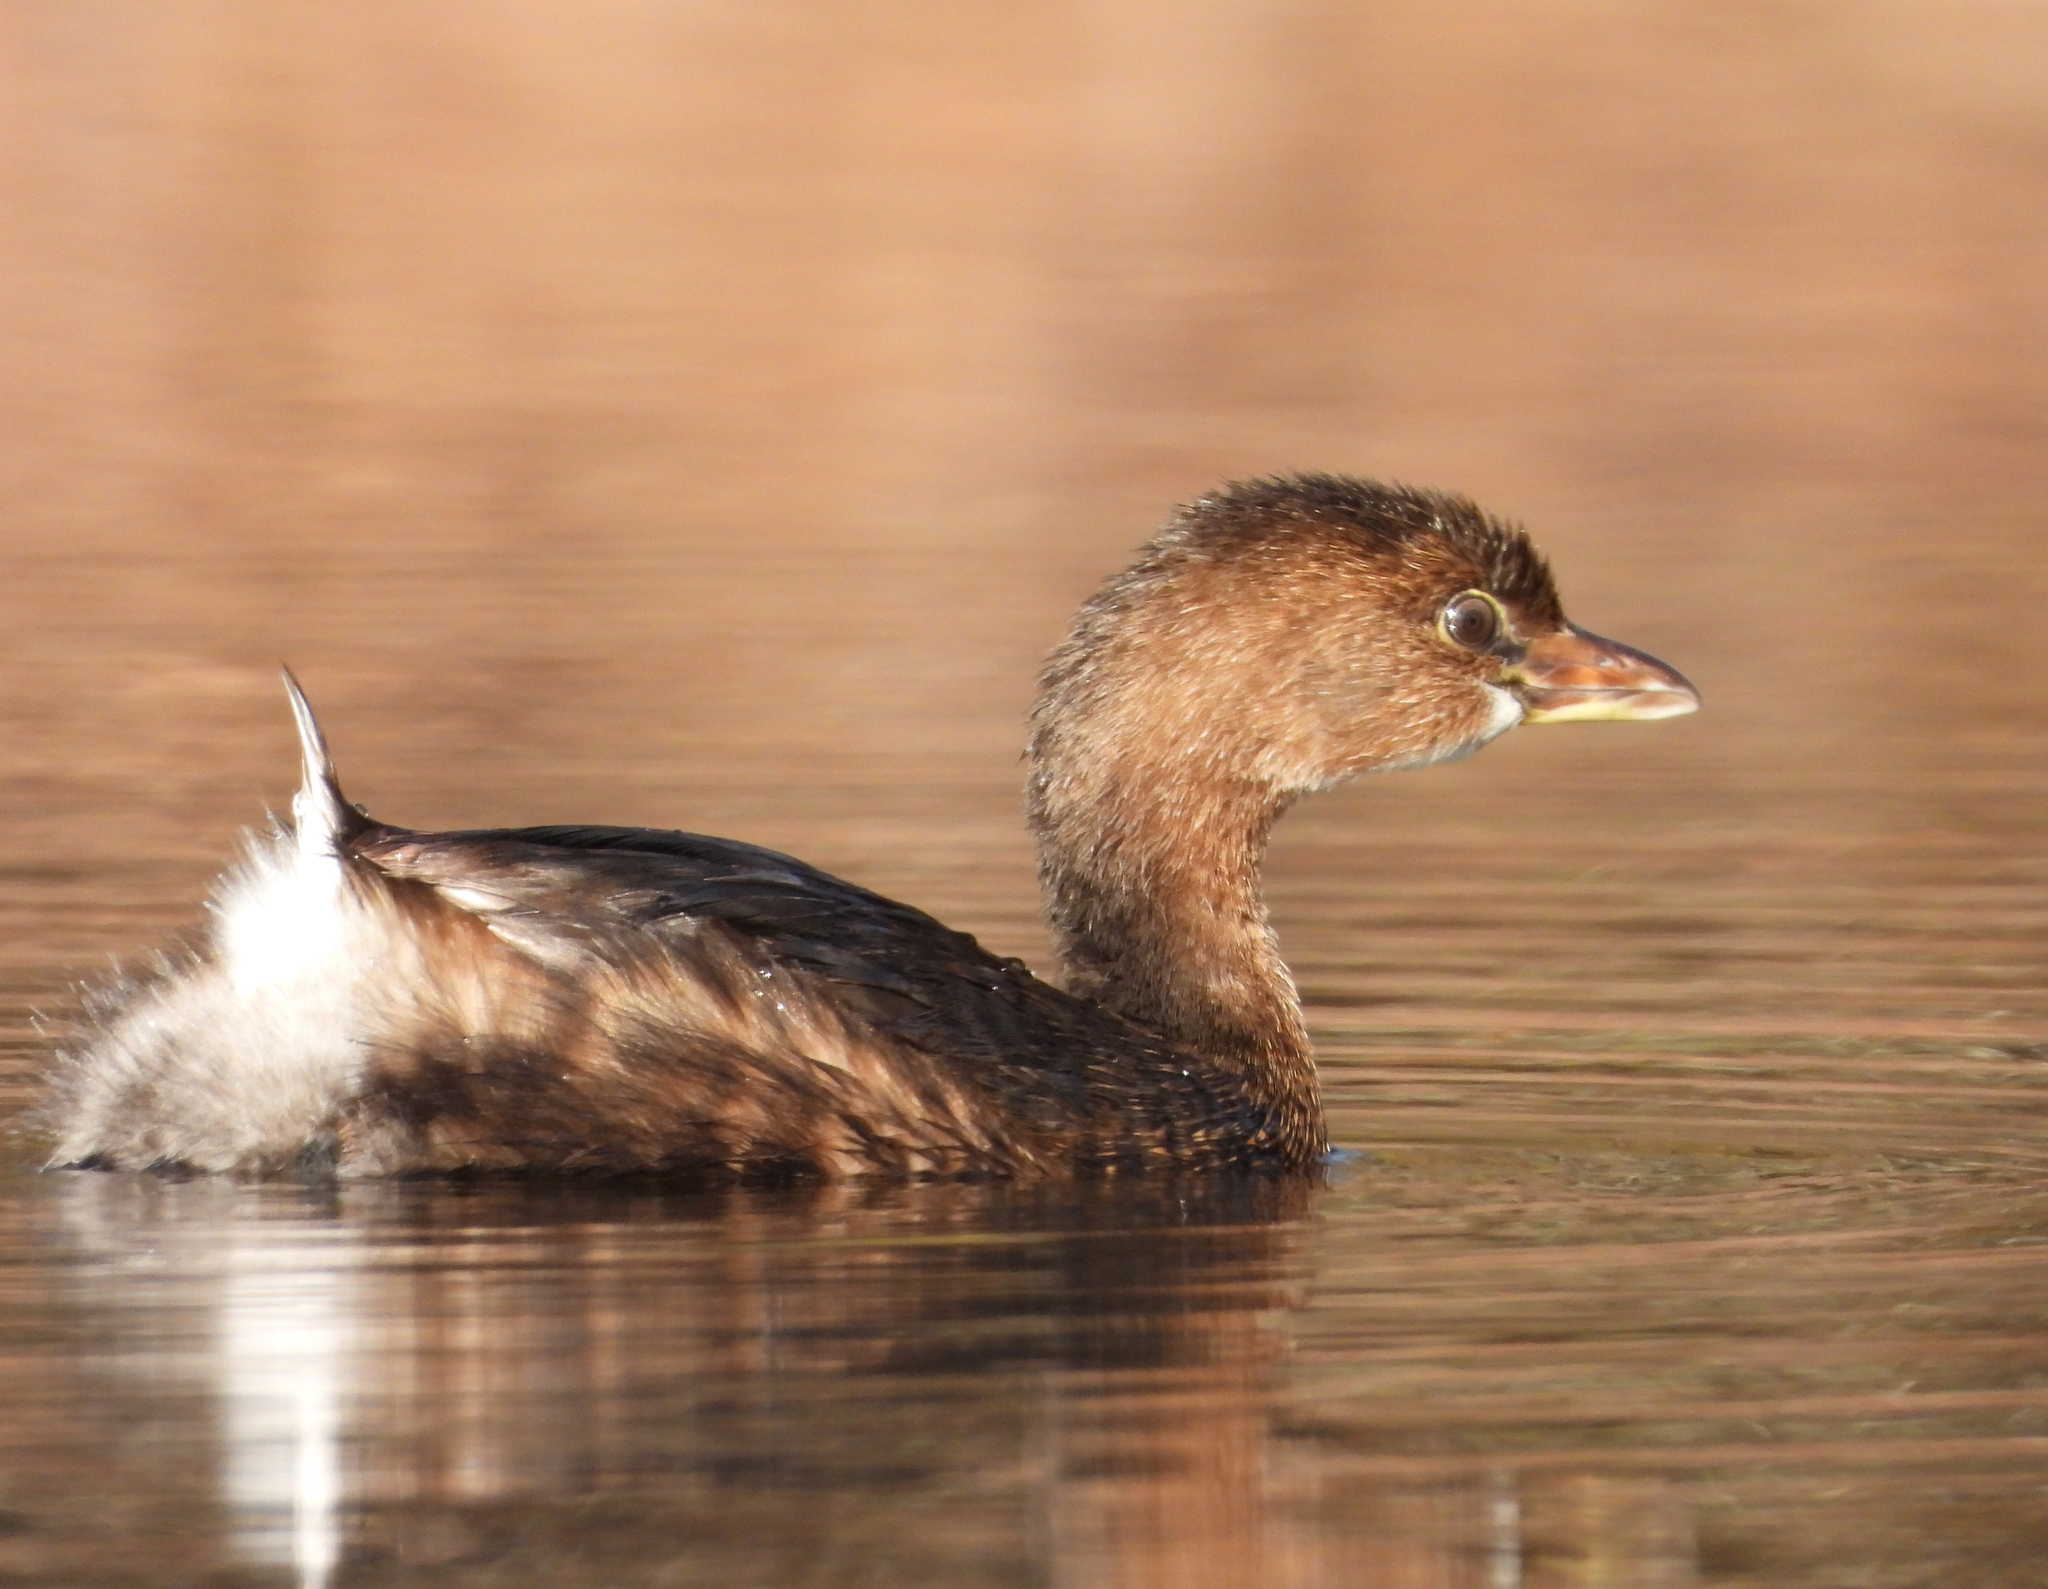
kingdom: Animalia
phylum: Chordata
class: Aves
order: Podicipediformes
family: Podicipedidae
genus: Podilymbus
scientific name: Podilymbus podiceps
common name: Pied-billed grebe
